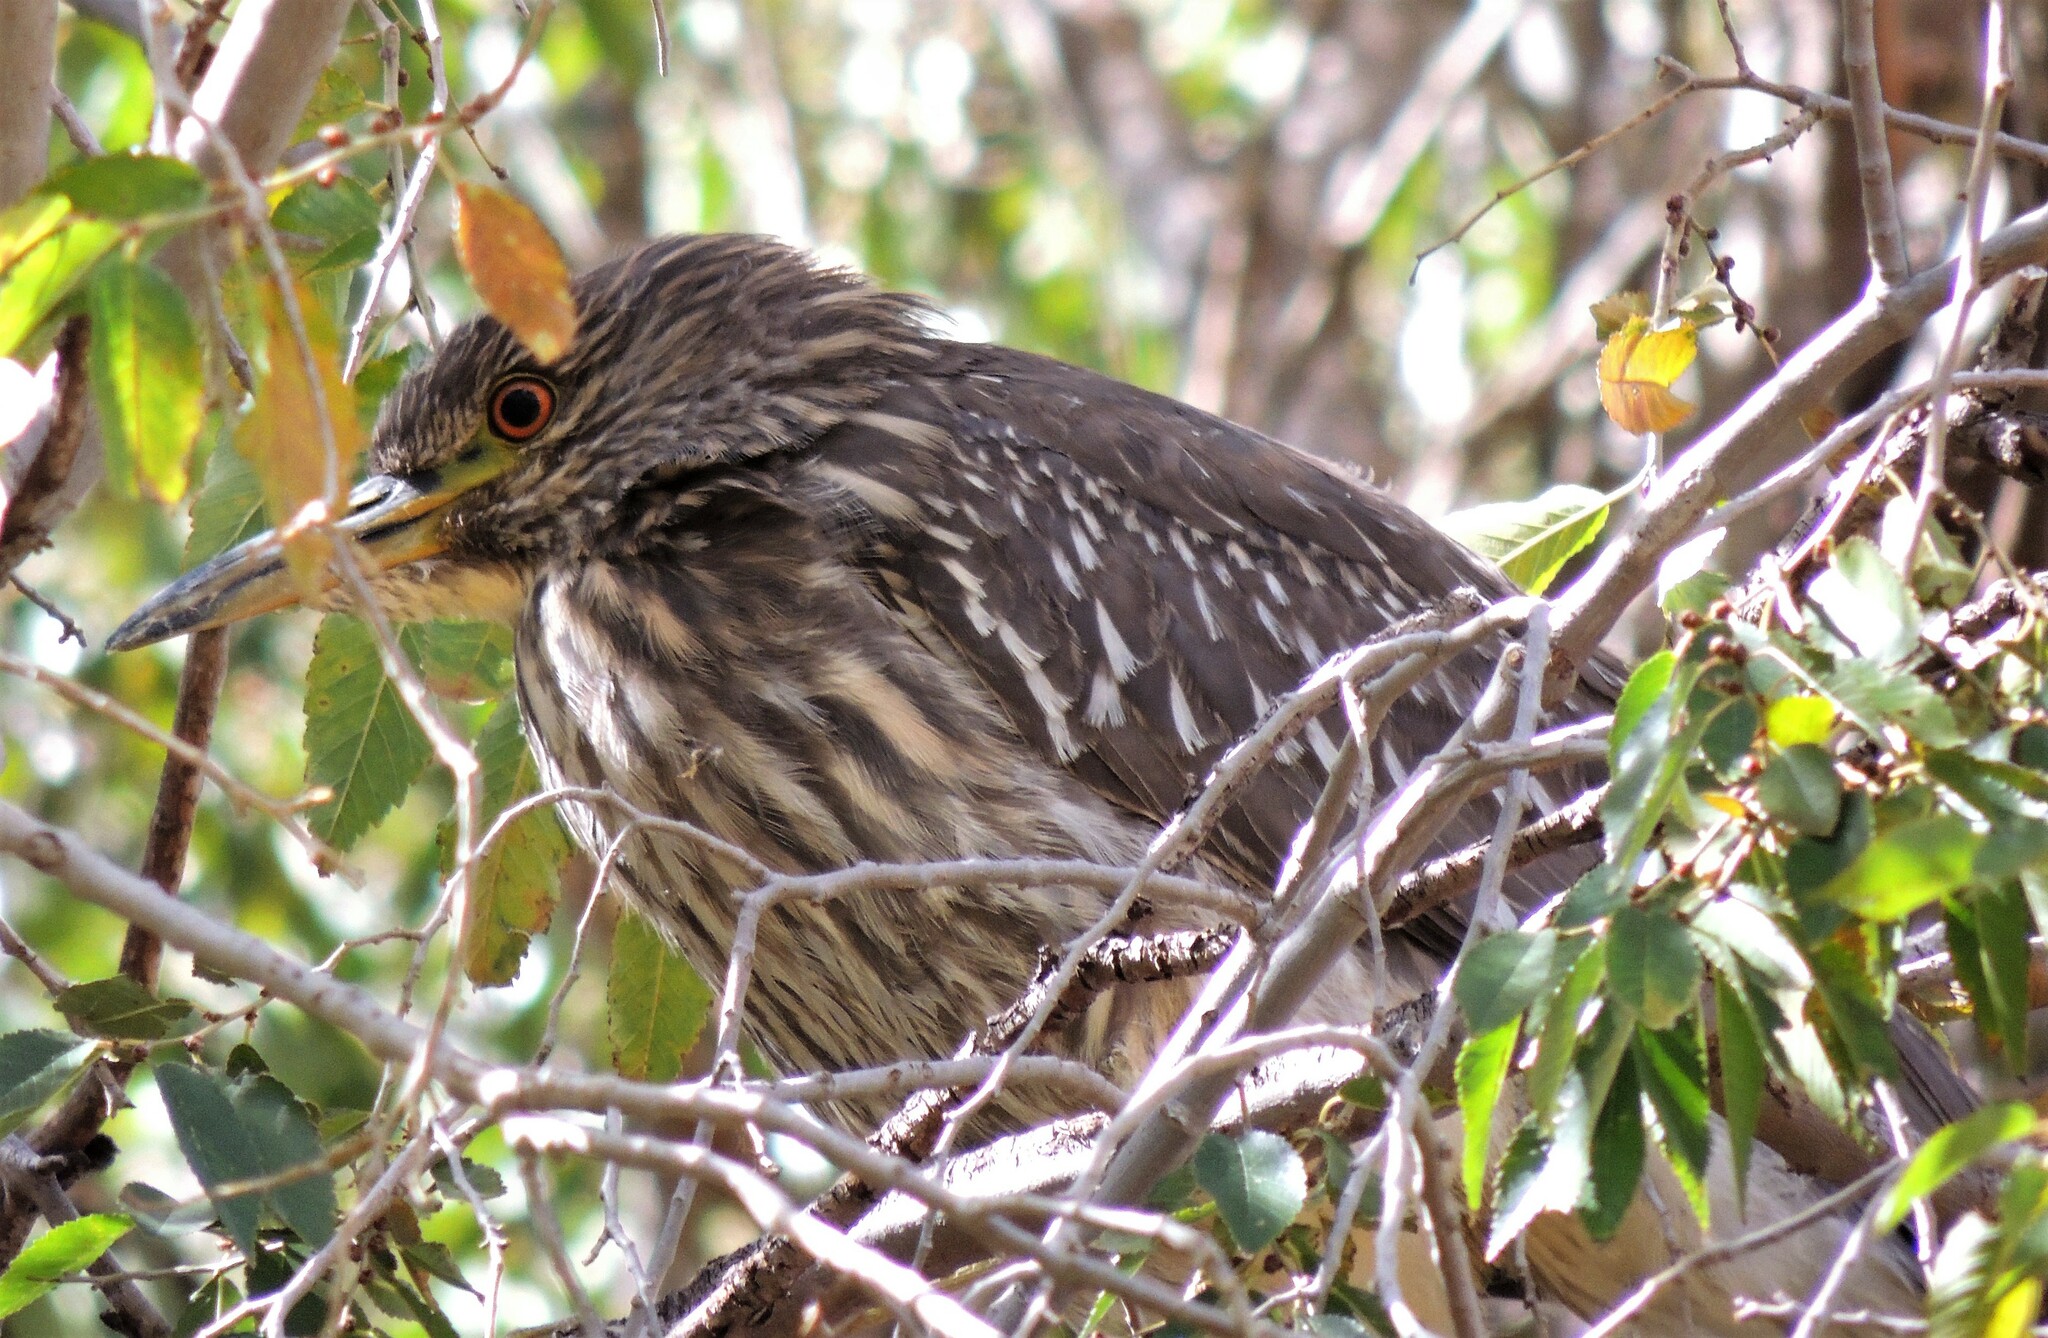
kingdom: Animalia
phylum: Chordata
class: Aves
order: Pelecaniformes
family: Ardeidae
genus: Nycticorax
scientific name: Nycticorax nycticorax
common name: Black-crowned night heron
